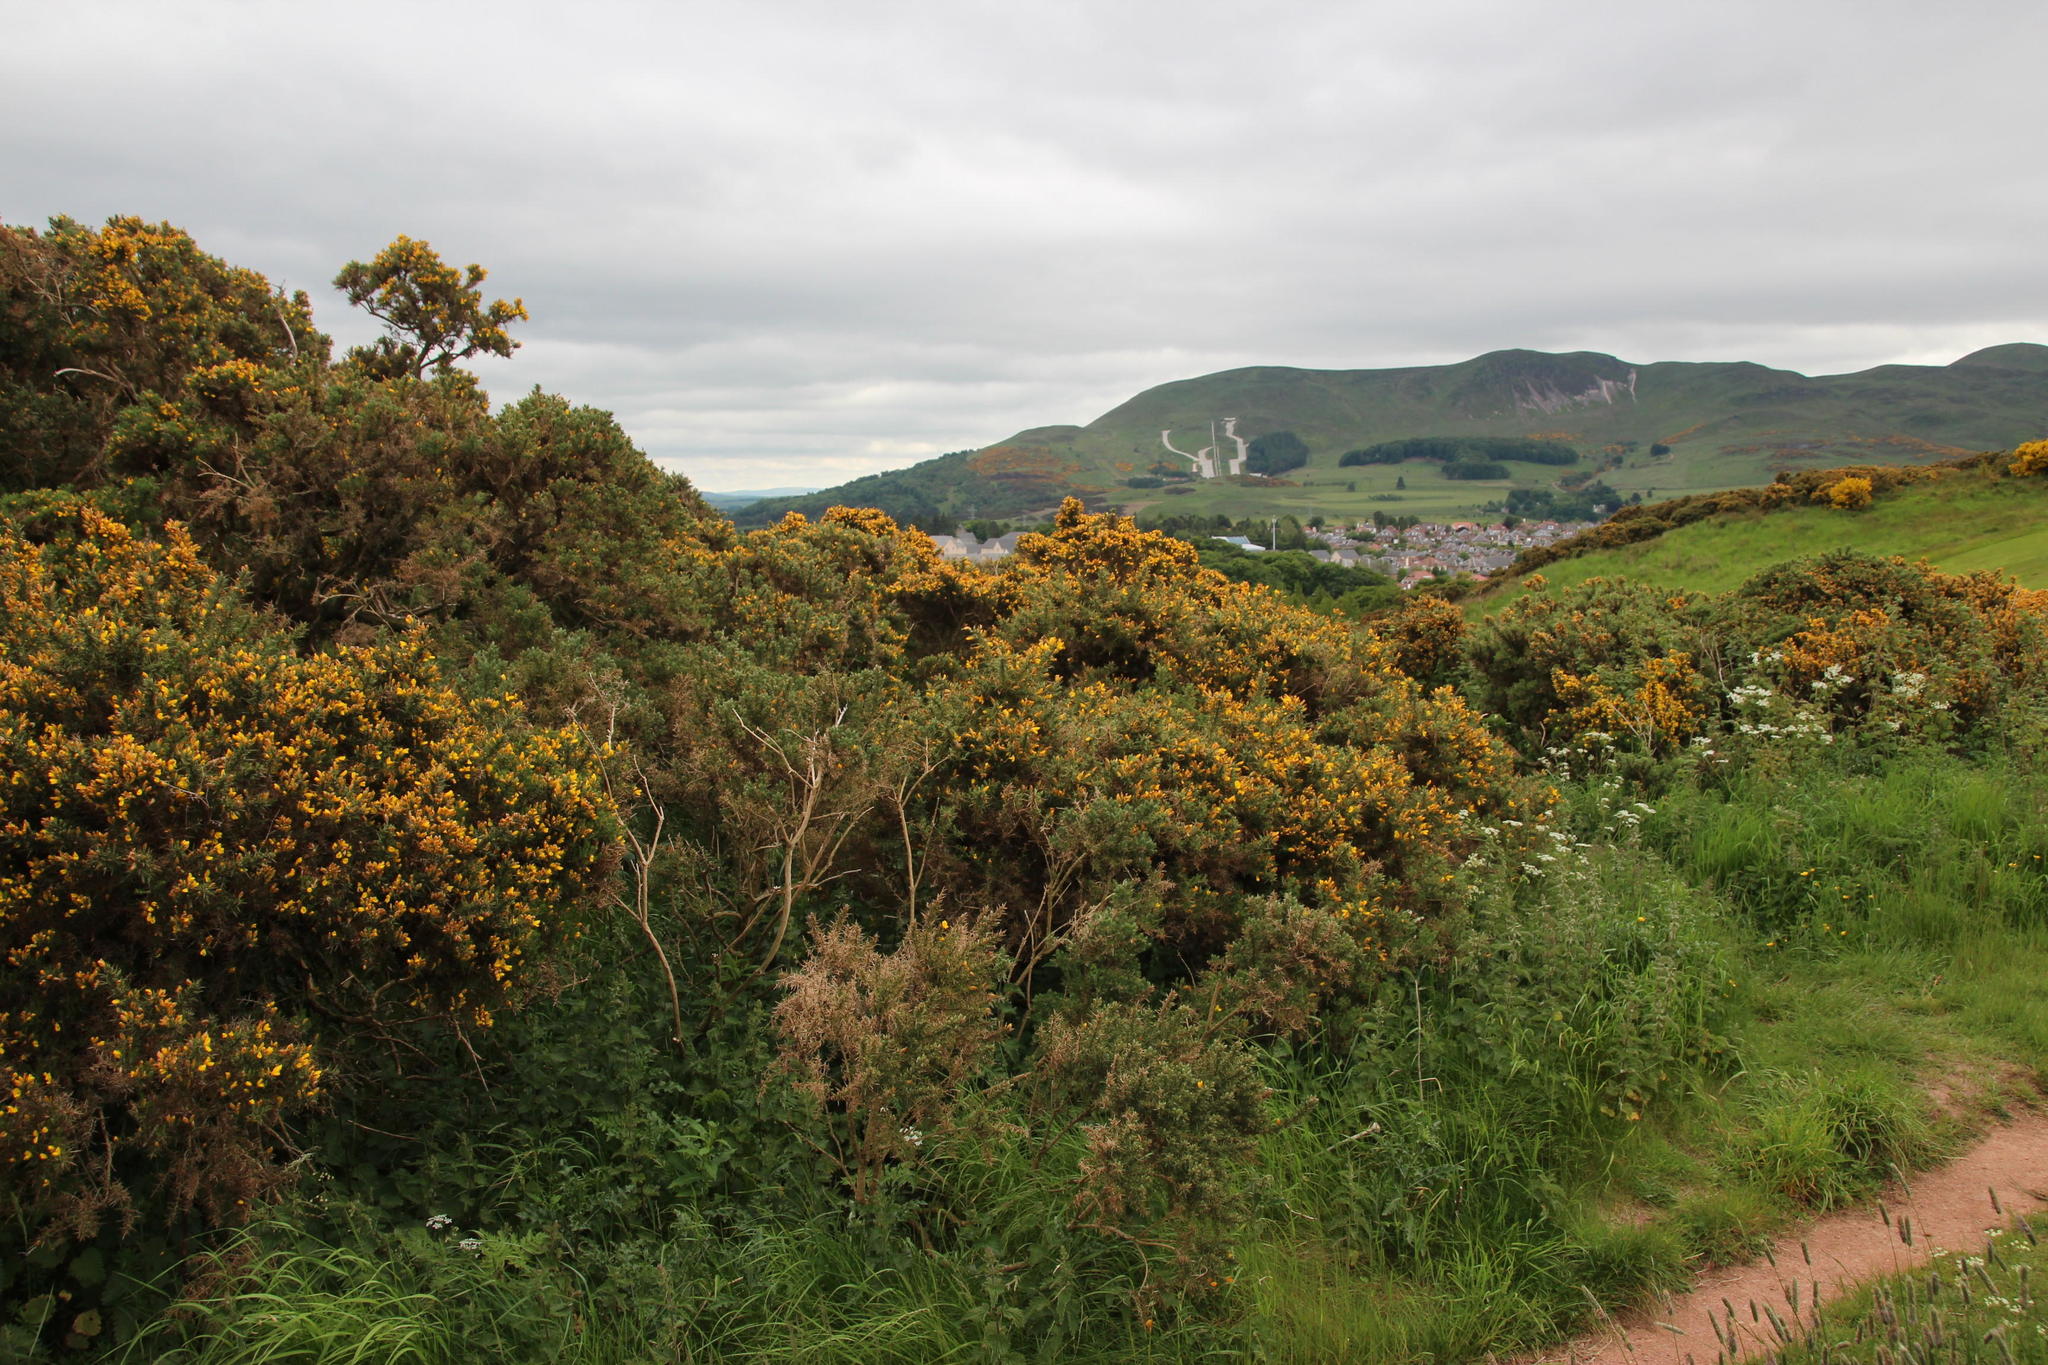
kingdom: Plantae
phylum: Tracheophyta
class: Magnoliopsida
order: Fabales
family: Fabaceae
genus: Ulex
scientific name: Ulex europaeus
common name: Common gorse
